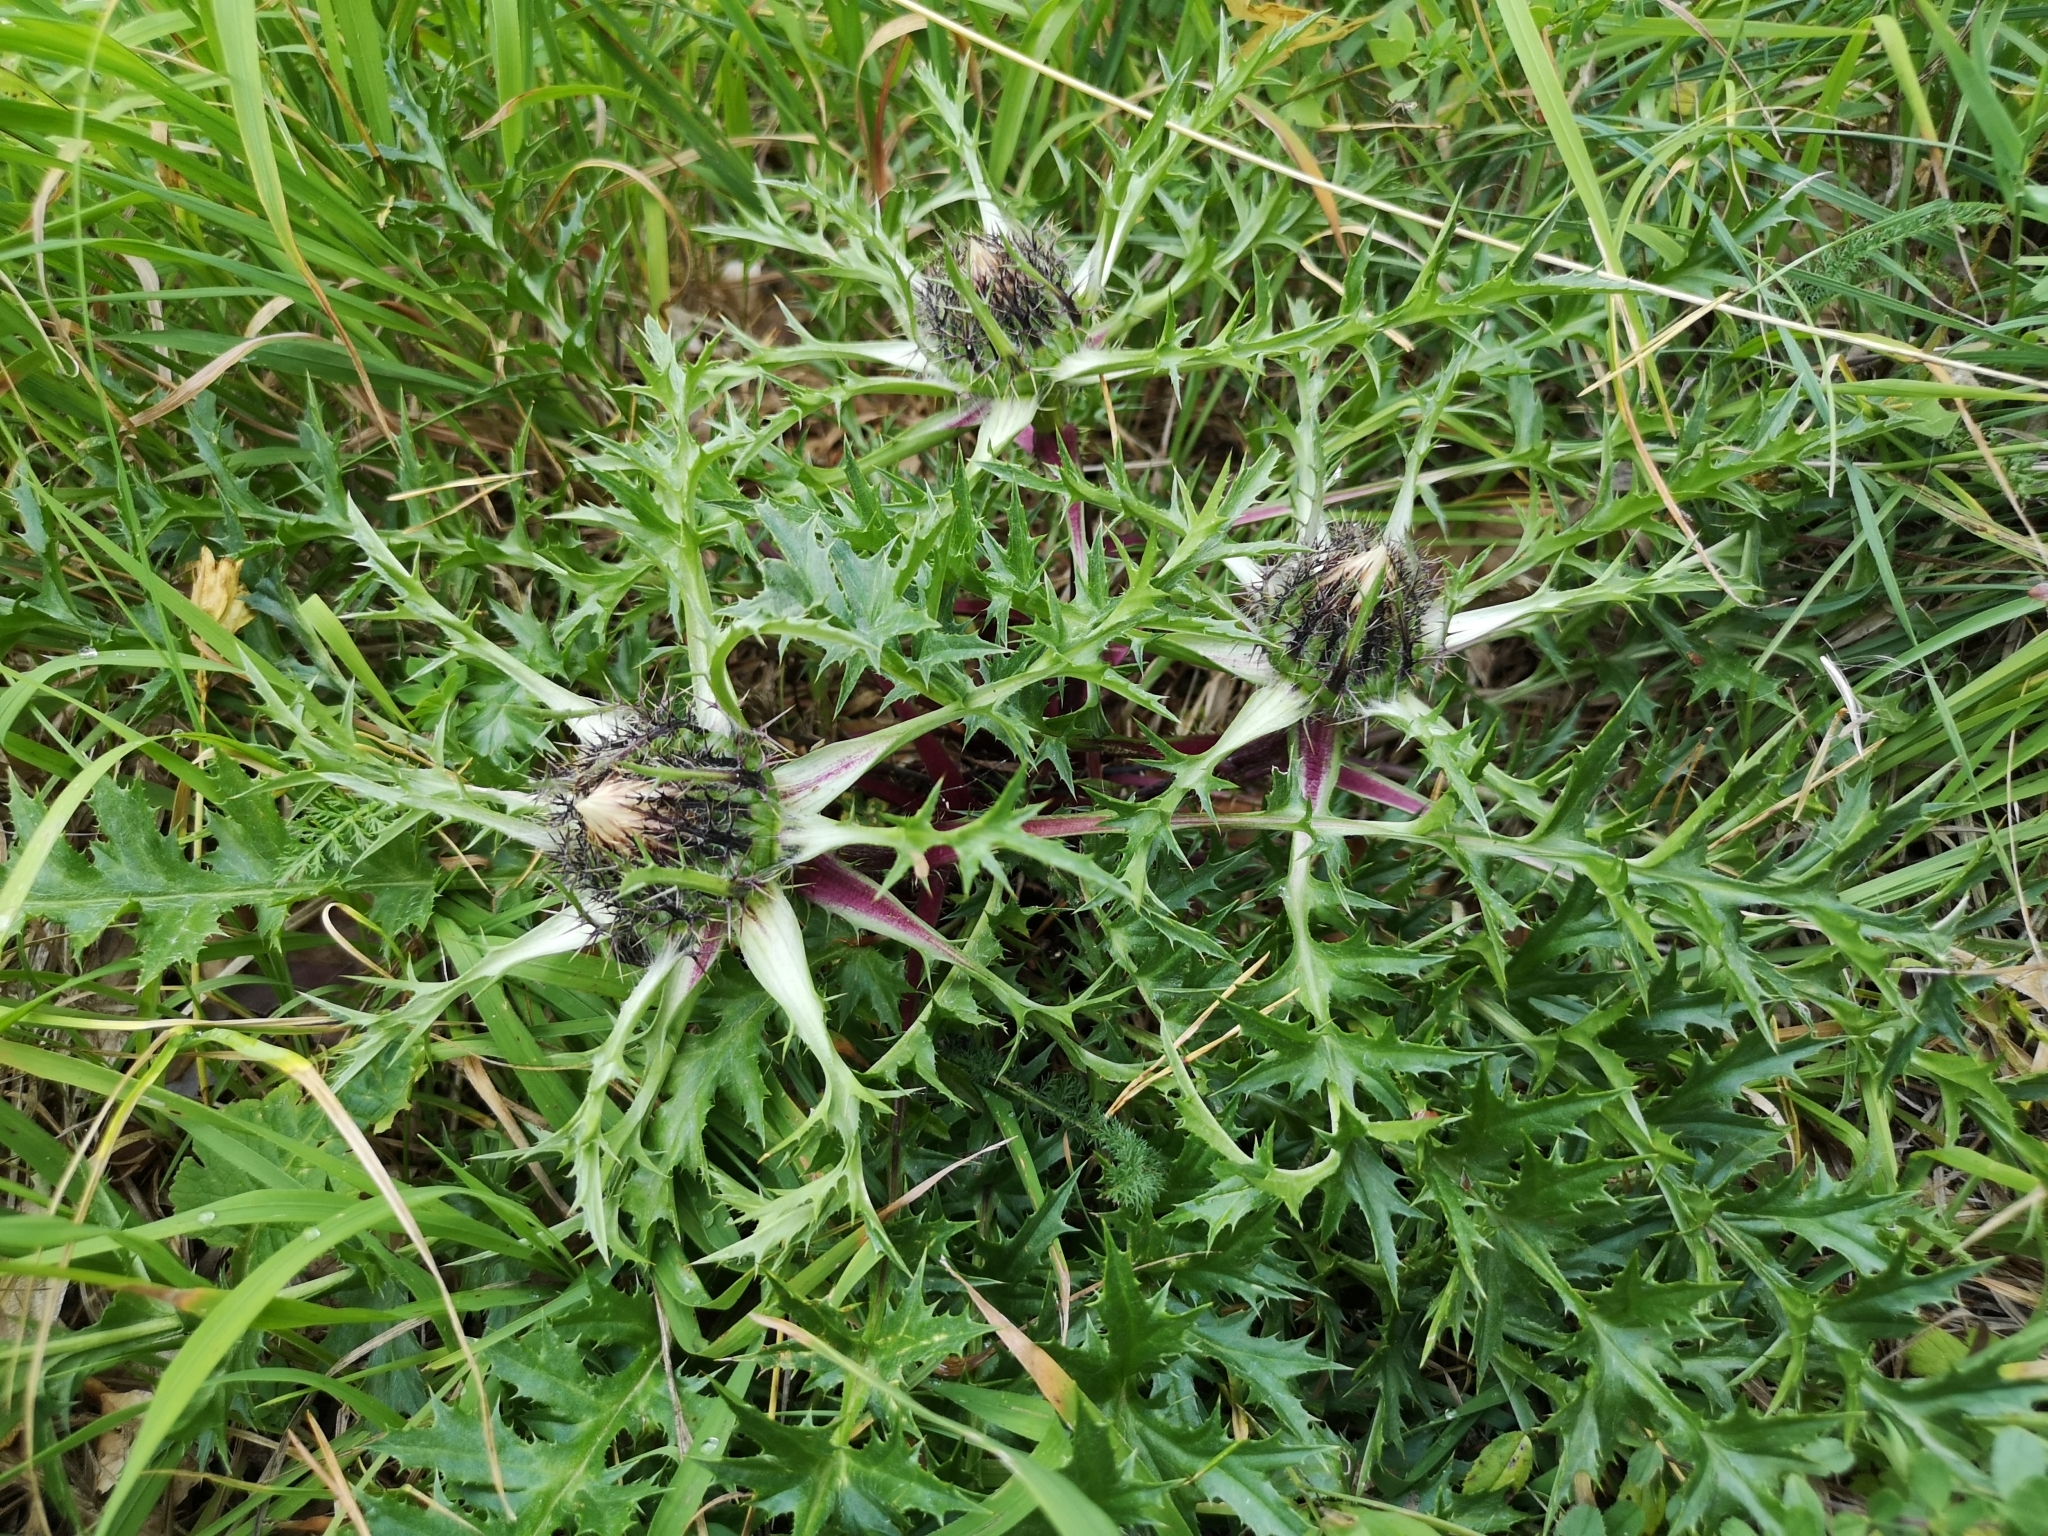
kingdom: Plantae
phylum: Tracheophyta
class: Magnoliopsida
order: Asterales
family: Asteraceae
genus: Carlina
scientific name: Carlina acaulis
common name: Stemless carline thistle
